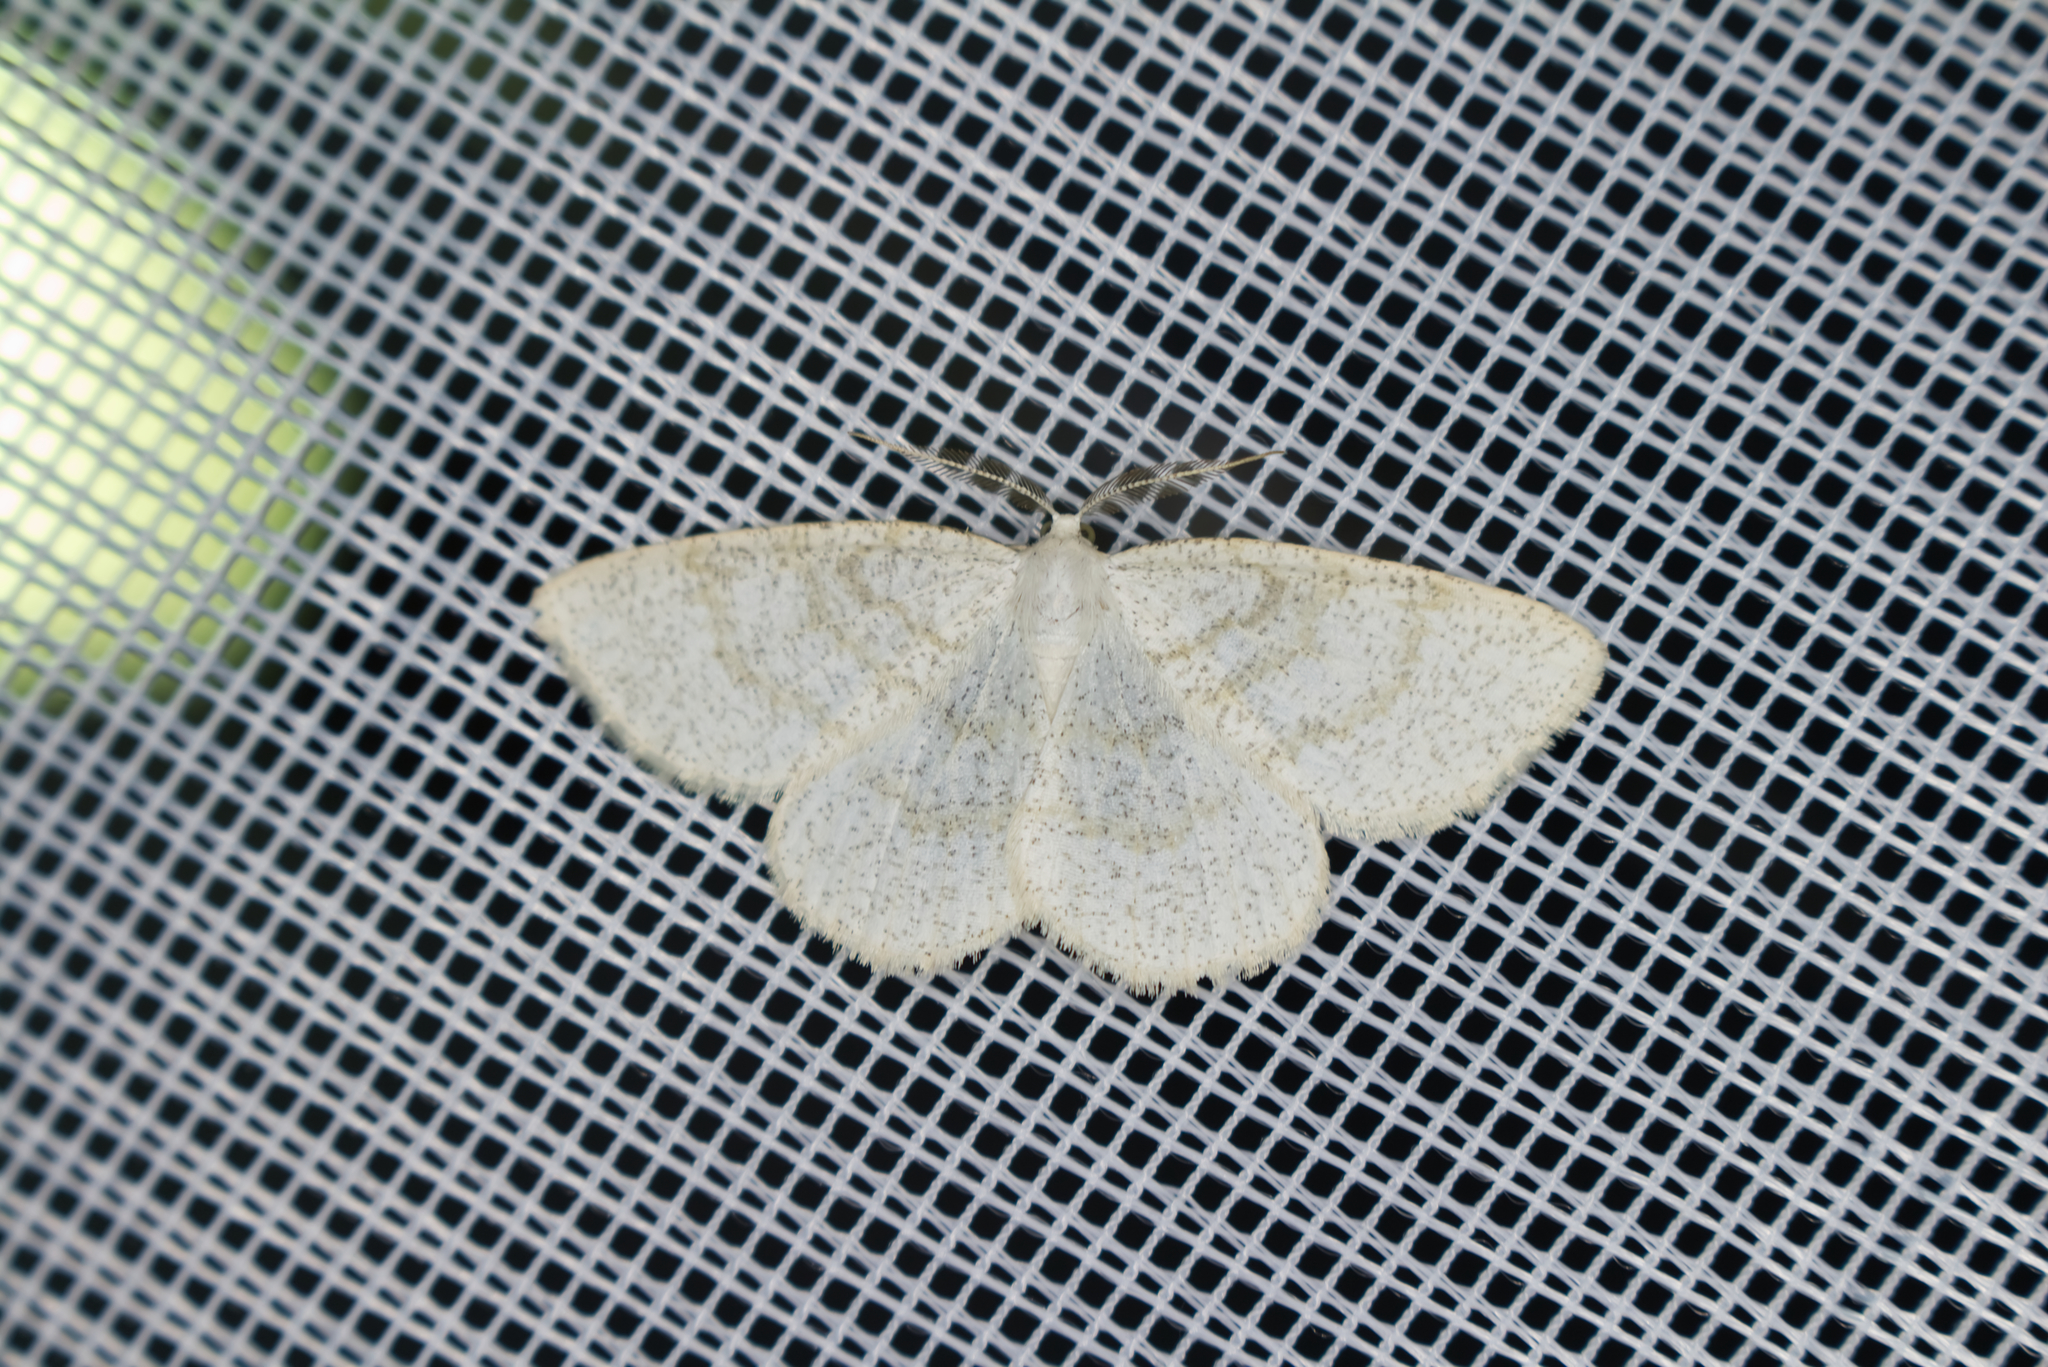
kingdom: Animalia
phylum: Arthropoda
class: Insecta
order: Lepidoptera
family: Geometridae
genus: Cabera
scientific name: Cabera exanthemata
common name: Common wave
